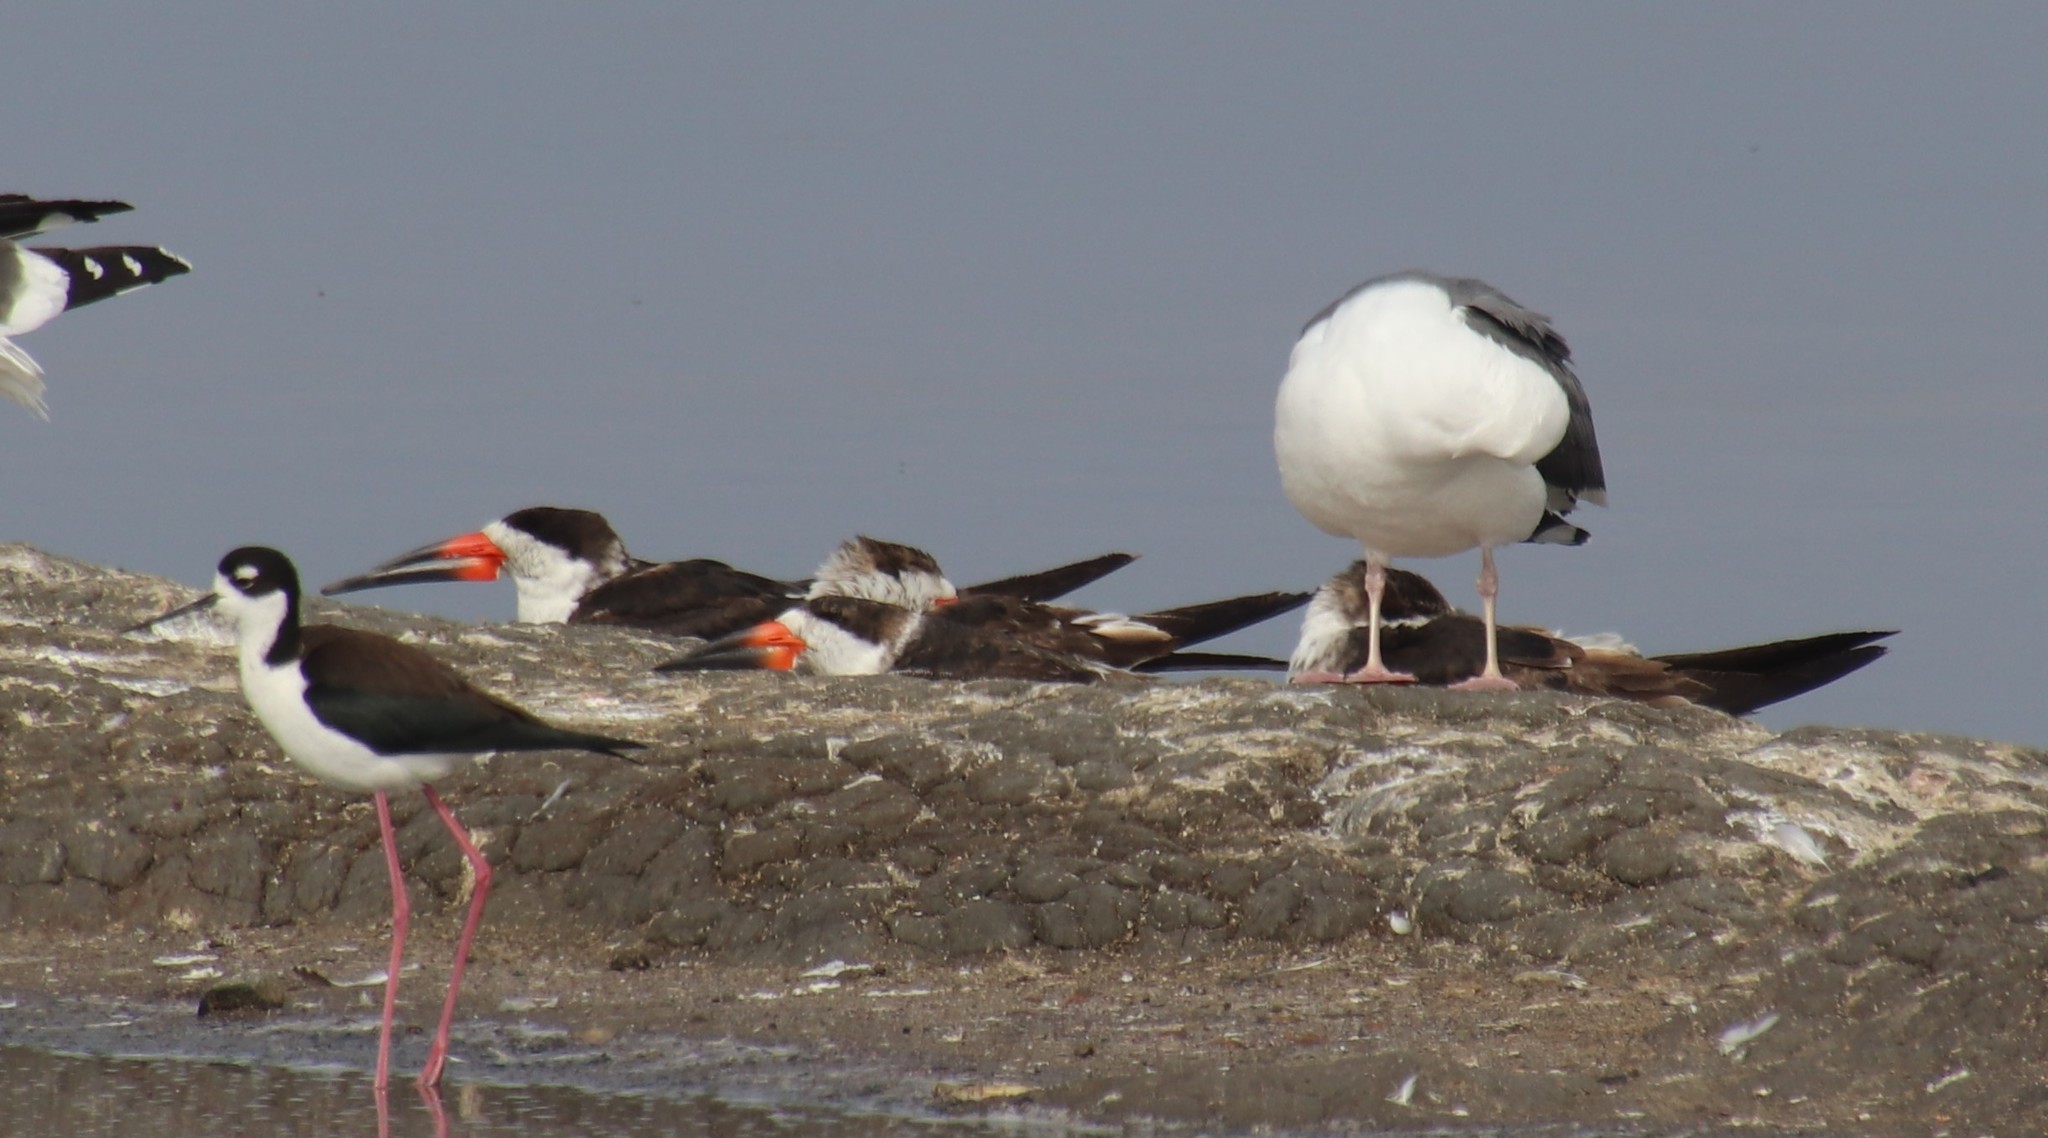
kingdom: Animalia
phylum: Chordata
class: Aves
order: Charadriiformes
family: Laridae
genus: Rynchops
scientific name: Rynchops niger
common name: Black skimmer
